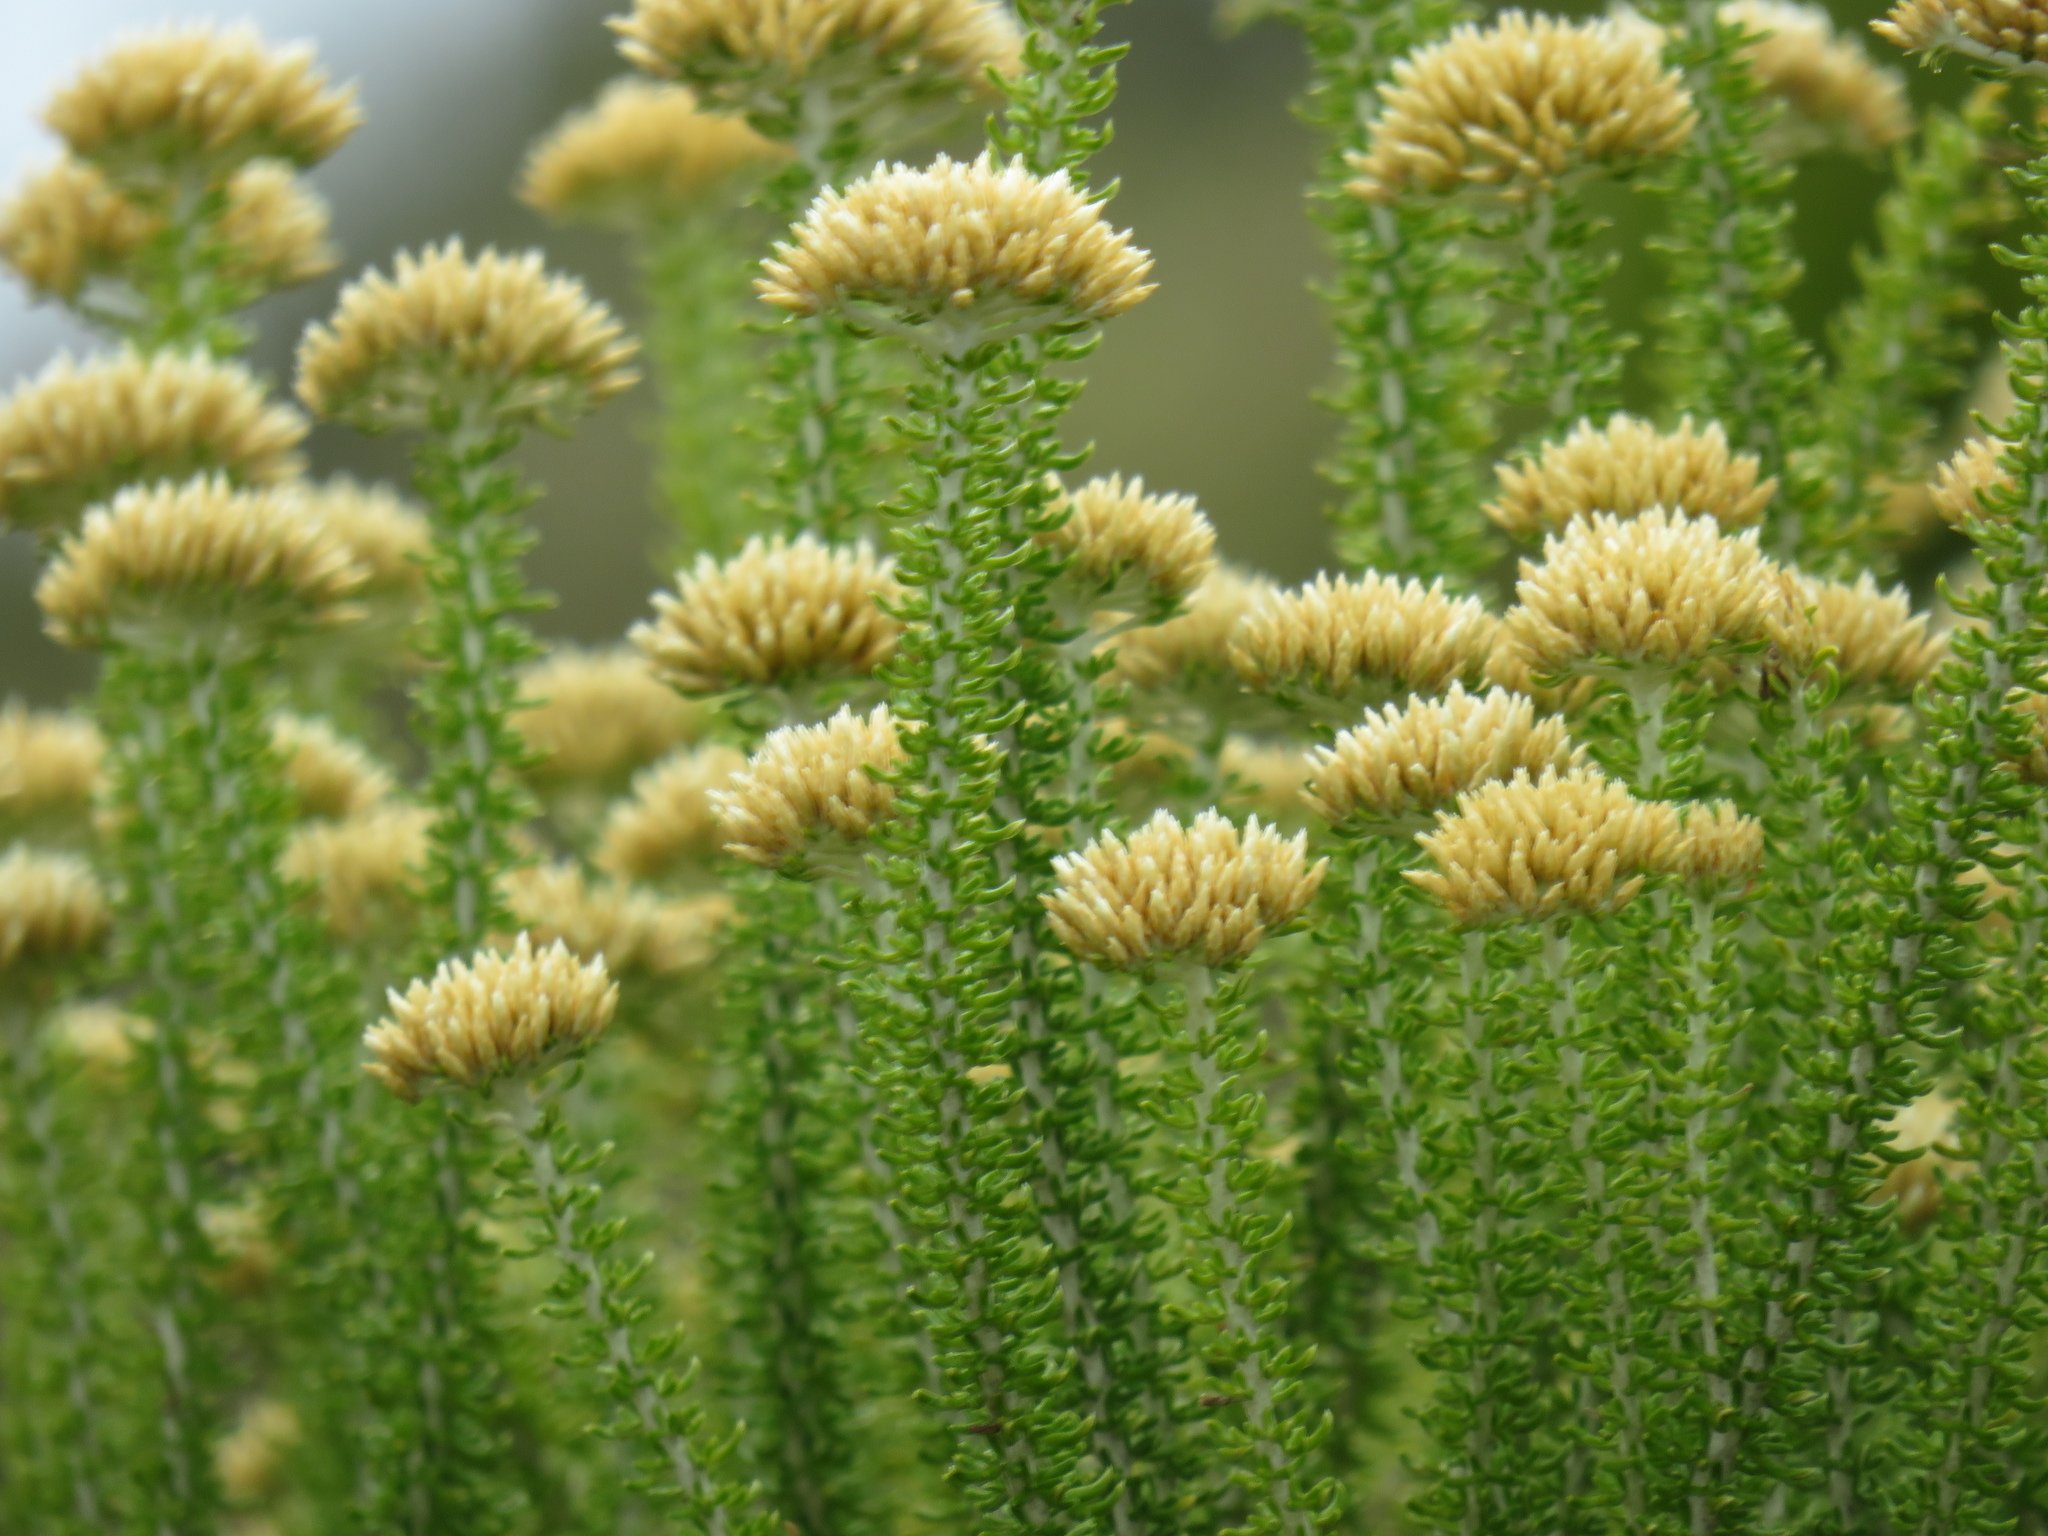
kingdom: Plantae
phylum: Tracheophyta
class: Magnoliopsida
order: Asterales
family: Asteraceae
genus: Metalasia
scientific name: Metalasia muricata
